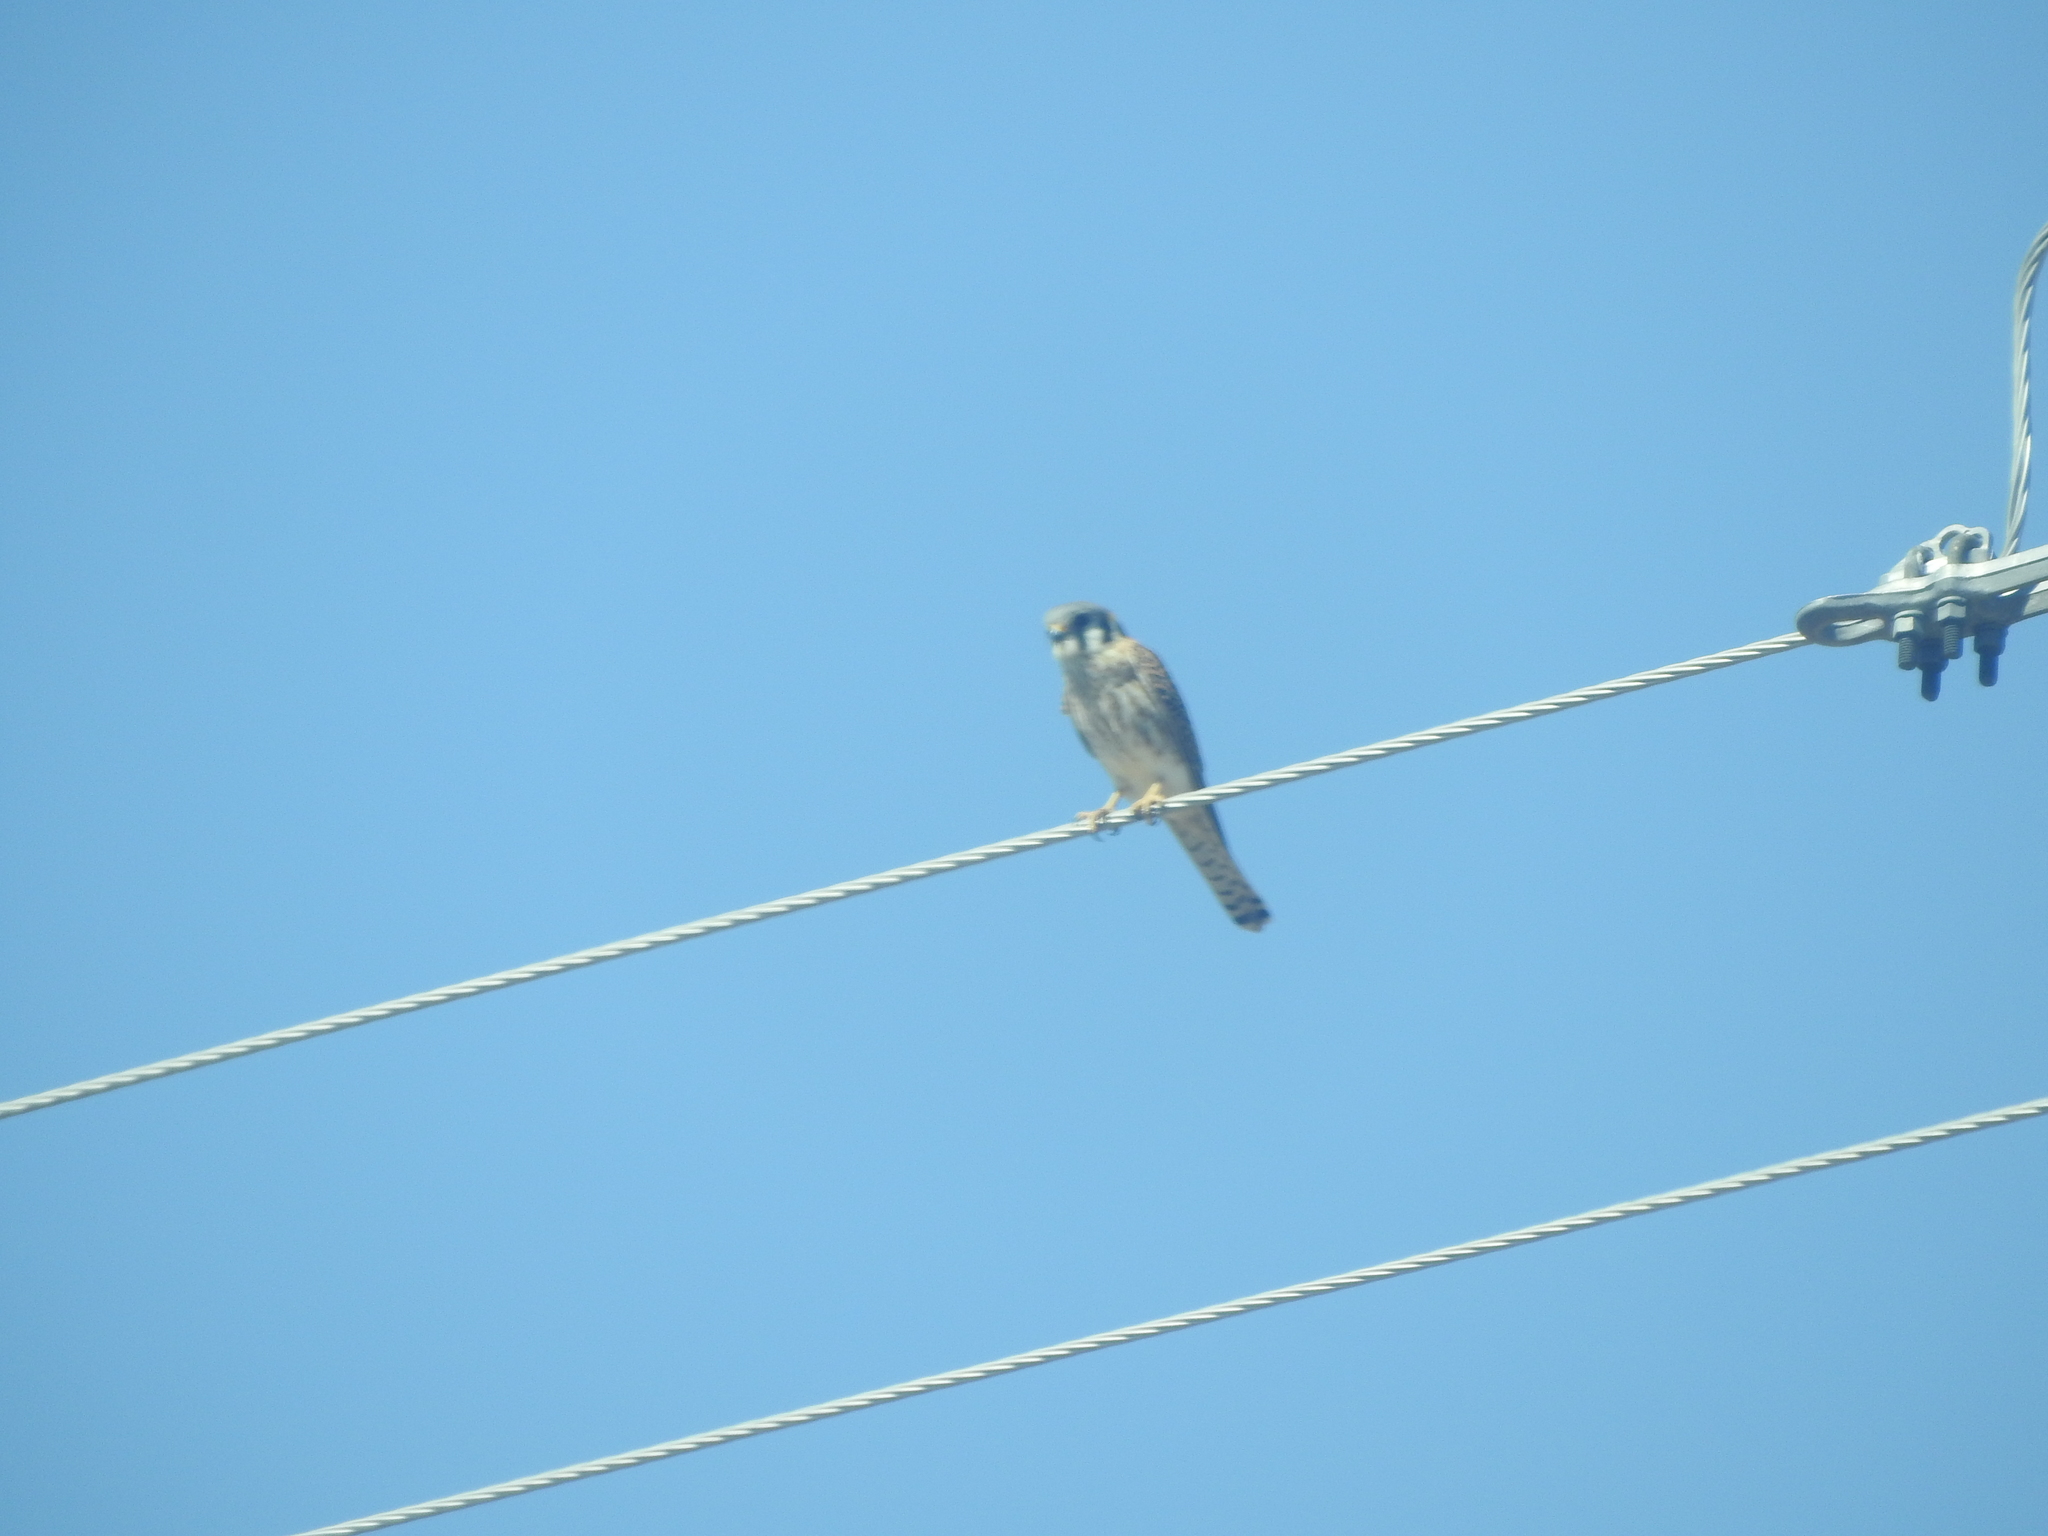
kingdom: Animalia
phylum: Chordata
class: Aves
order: Falconiformes
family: Falconidae
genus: Falco
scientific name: Falco sparverius
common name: American kestrel
